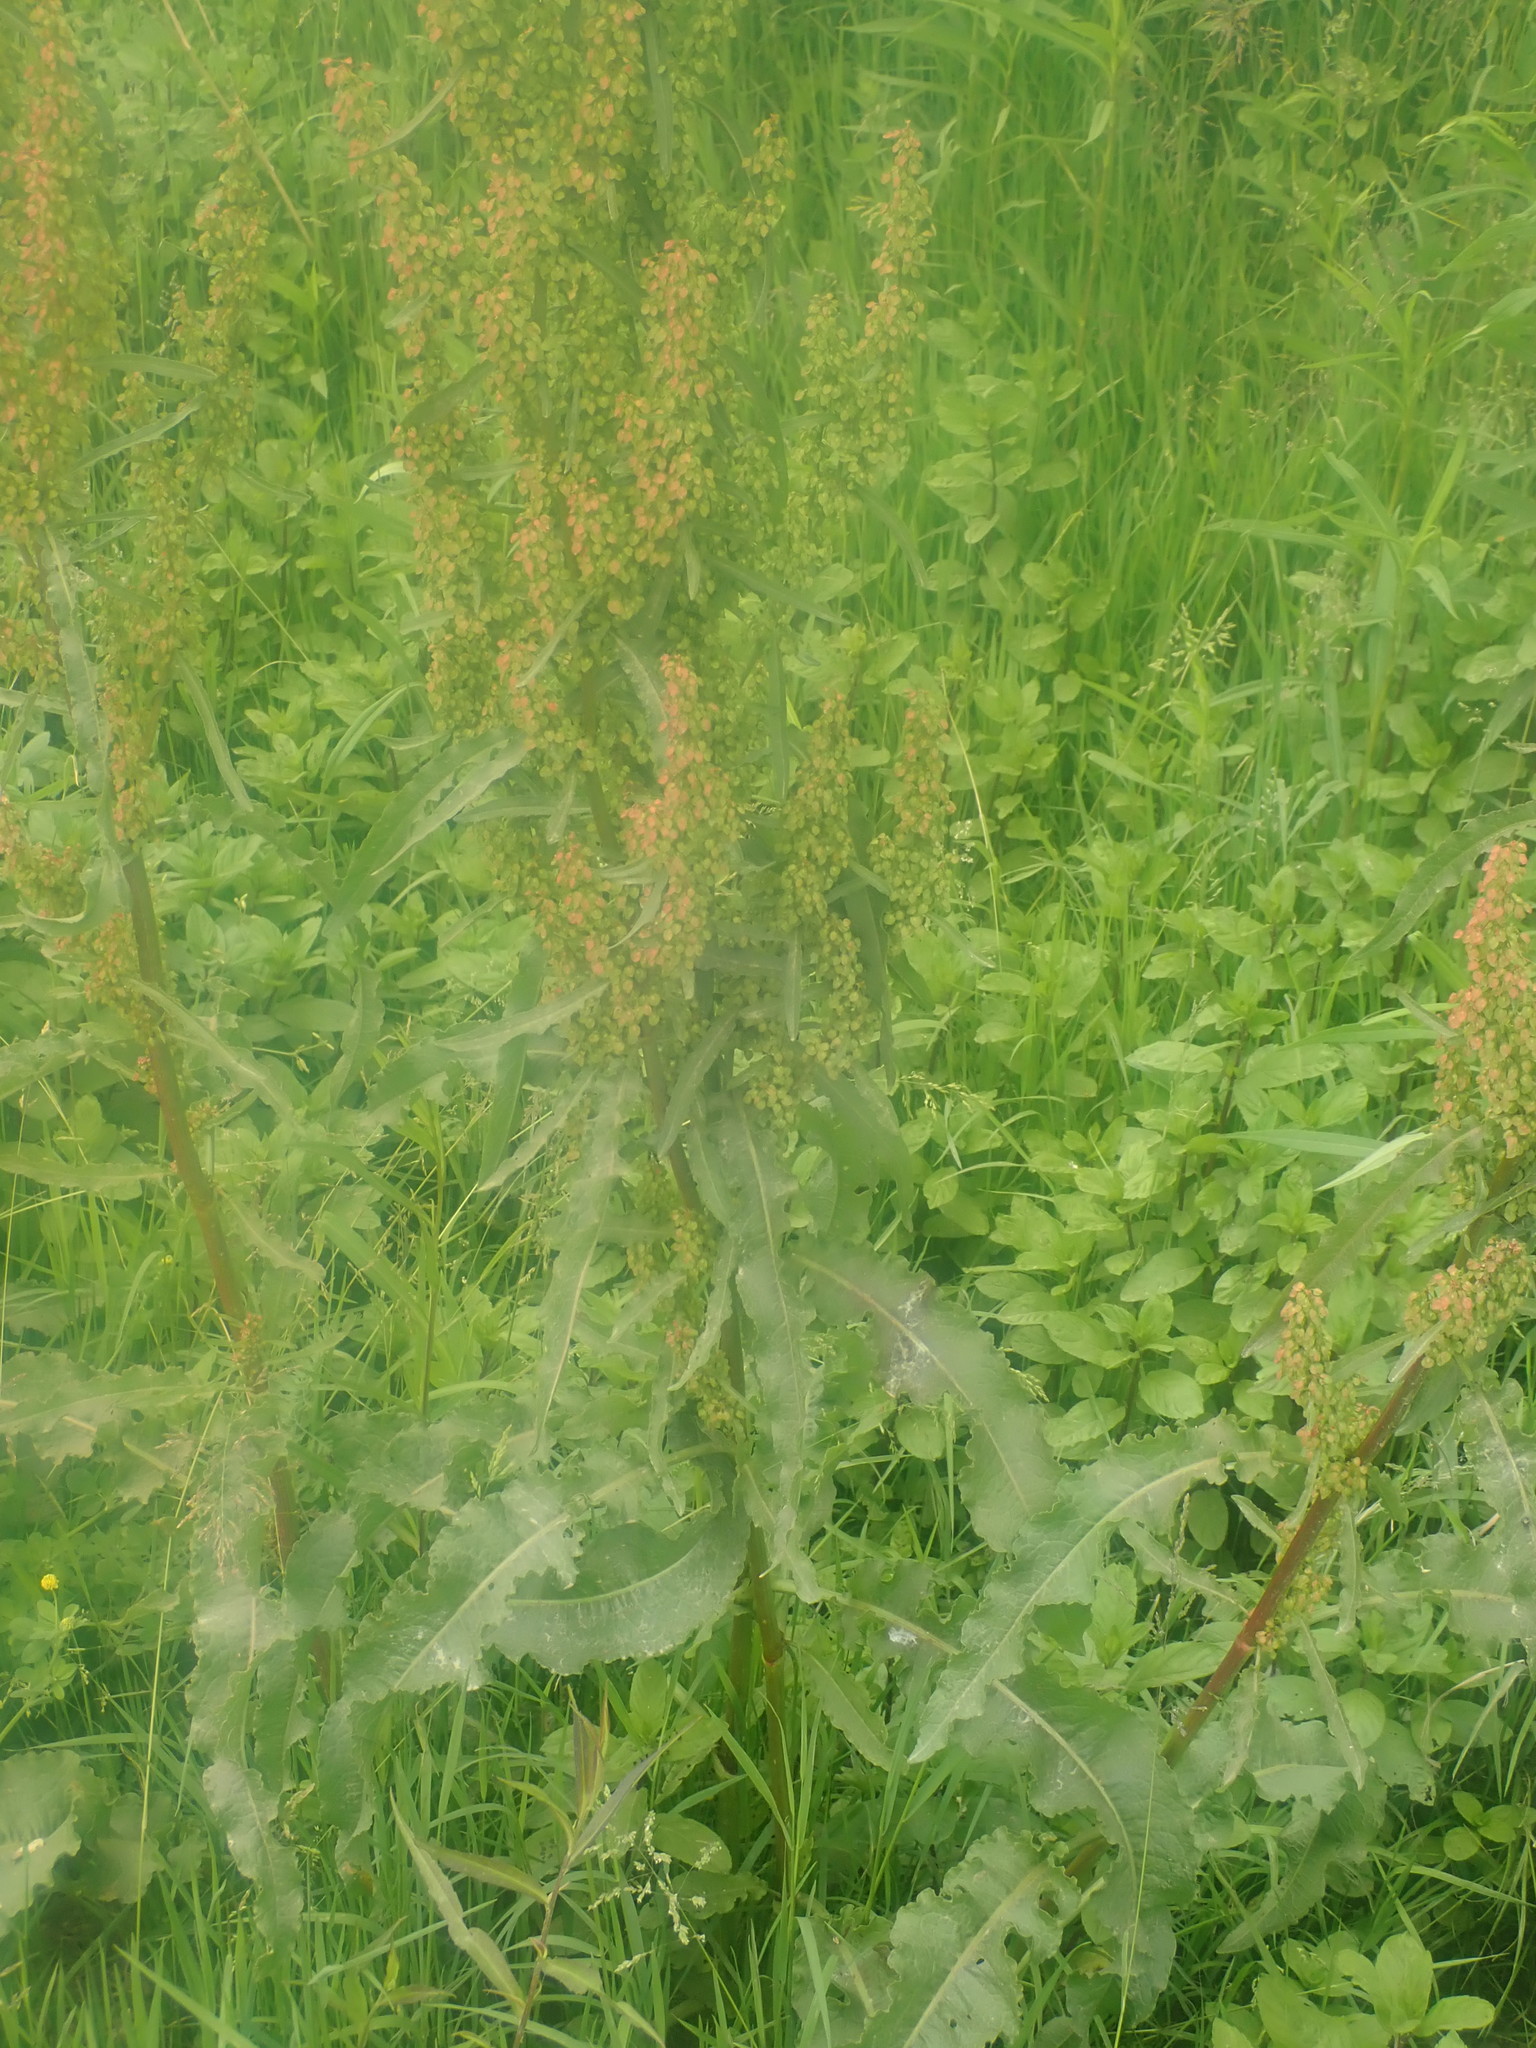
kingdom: Plantae
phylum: Tracheophyta
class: Magnoliopsida
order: Caryophyllales
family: Polygonaceae
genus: Rumex
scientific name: Rumex crispus
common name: Curled dock
